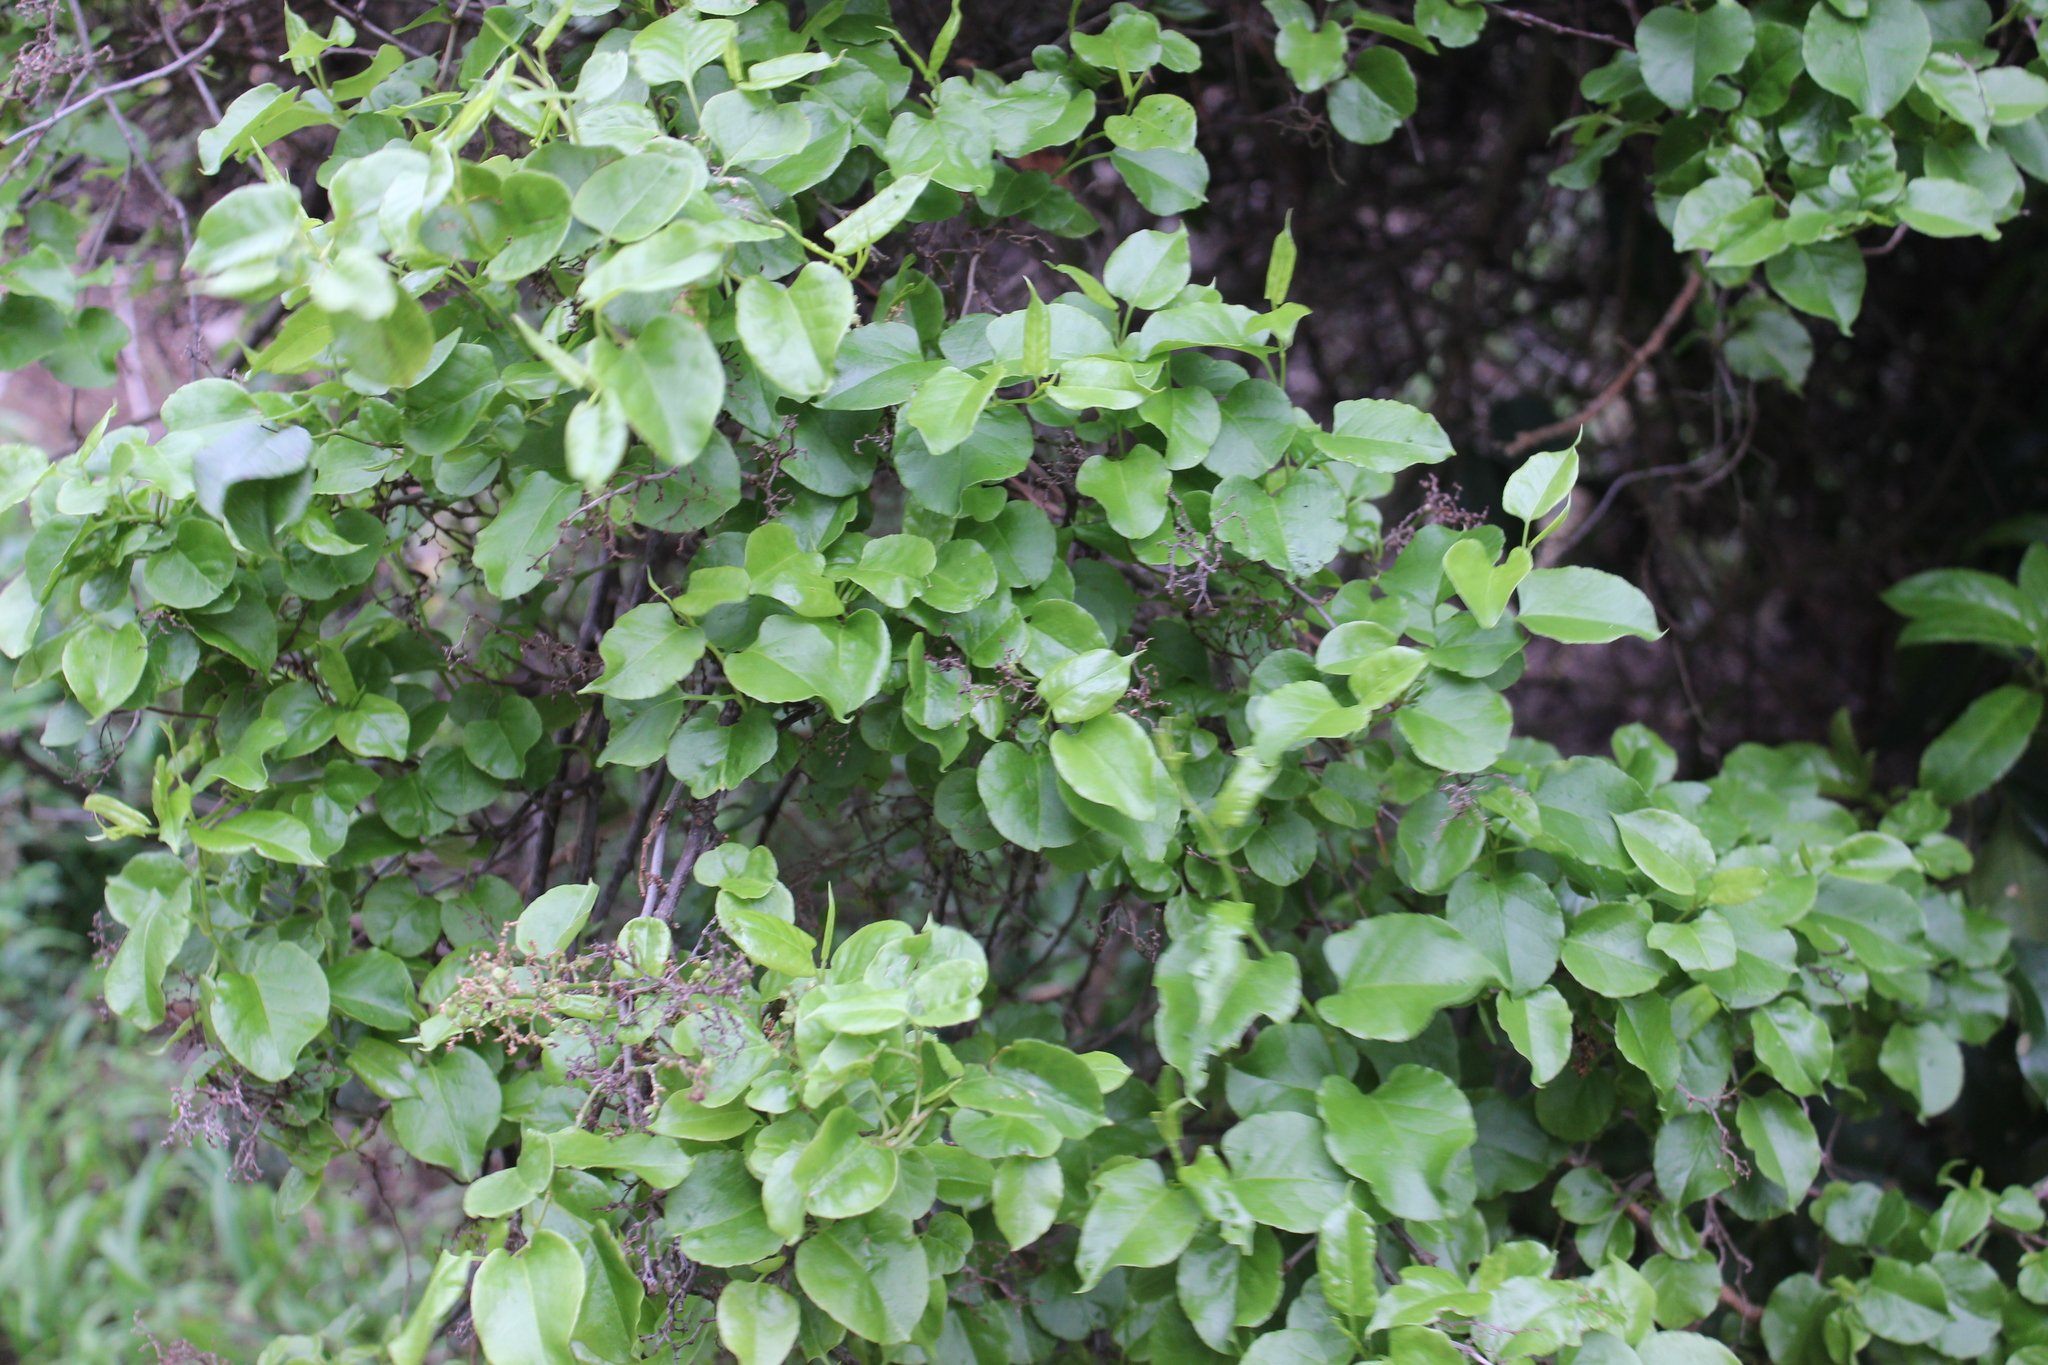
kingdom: Plantae
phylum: Tracheophyta
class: Magnoliopsida
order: Caryophyllales
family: Polygonaceae
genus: Muehlenbeckia
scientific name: Muehlenbeckia australis
